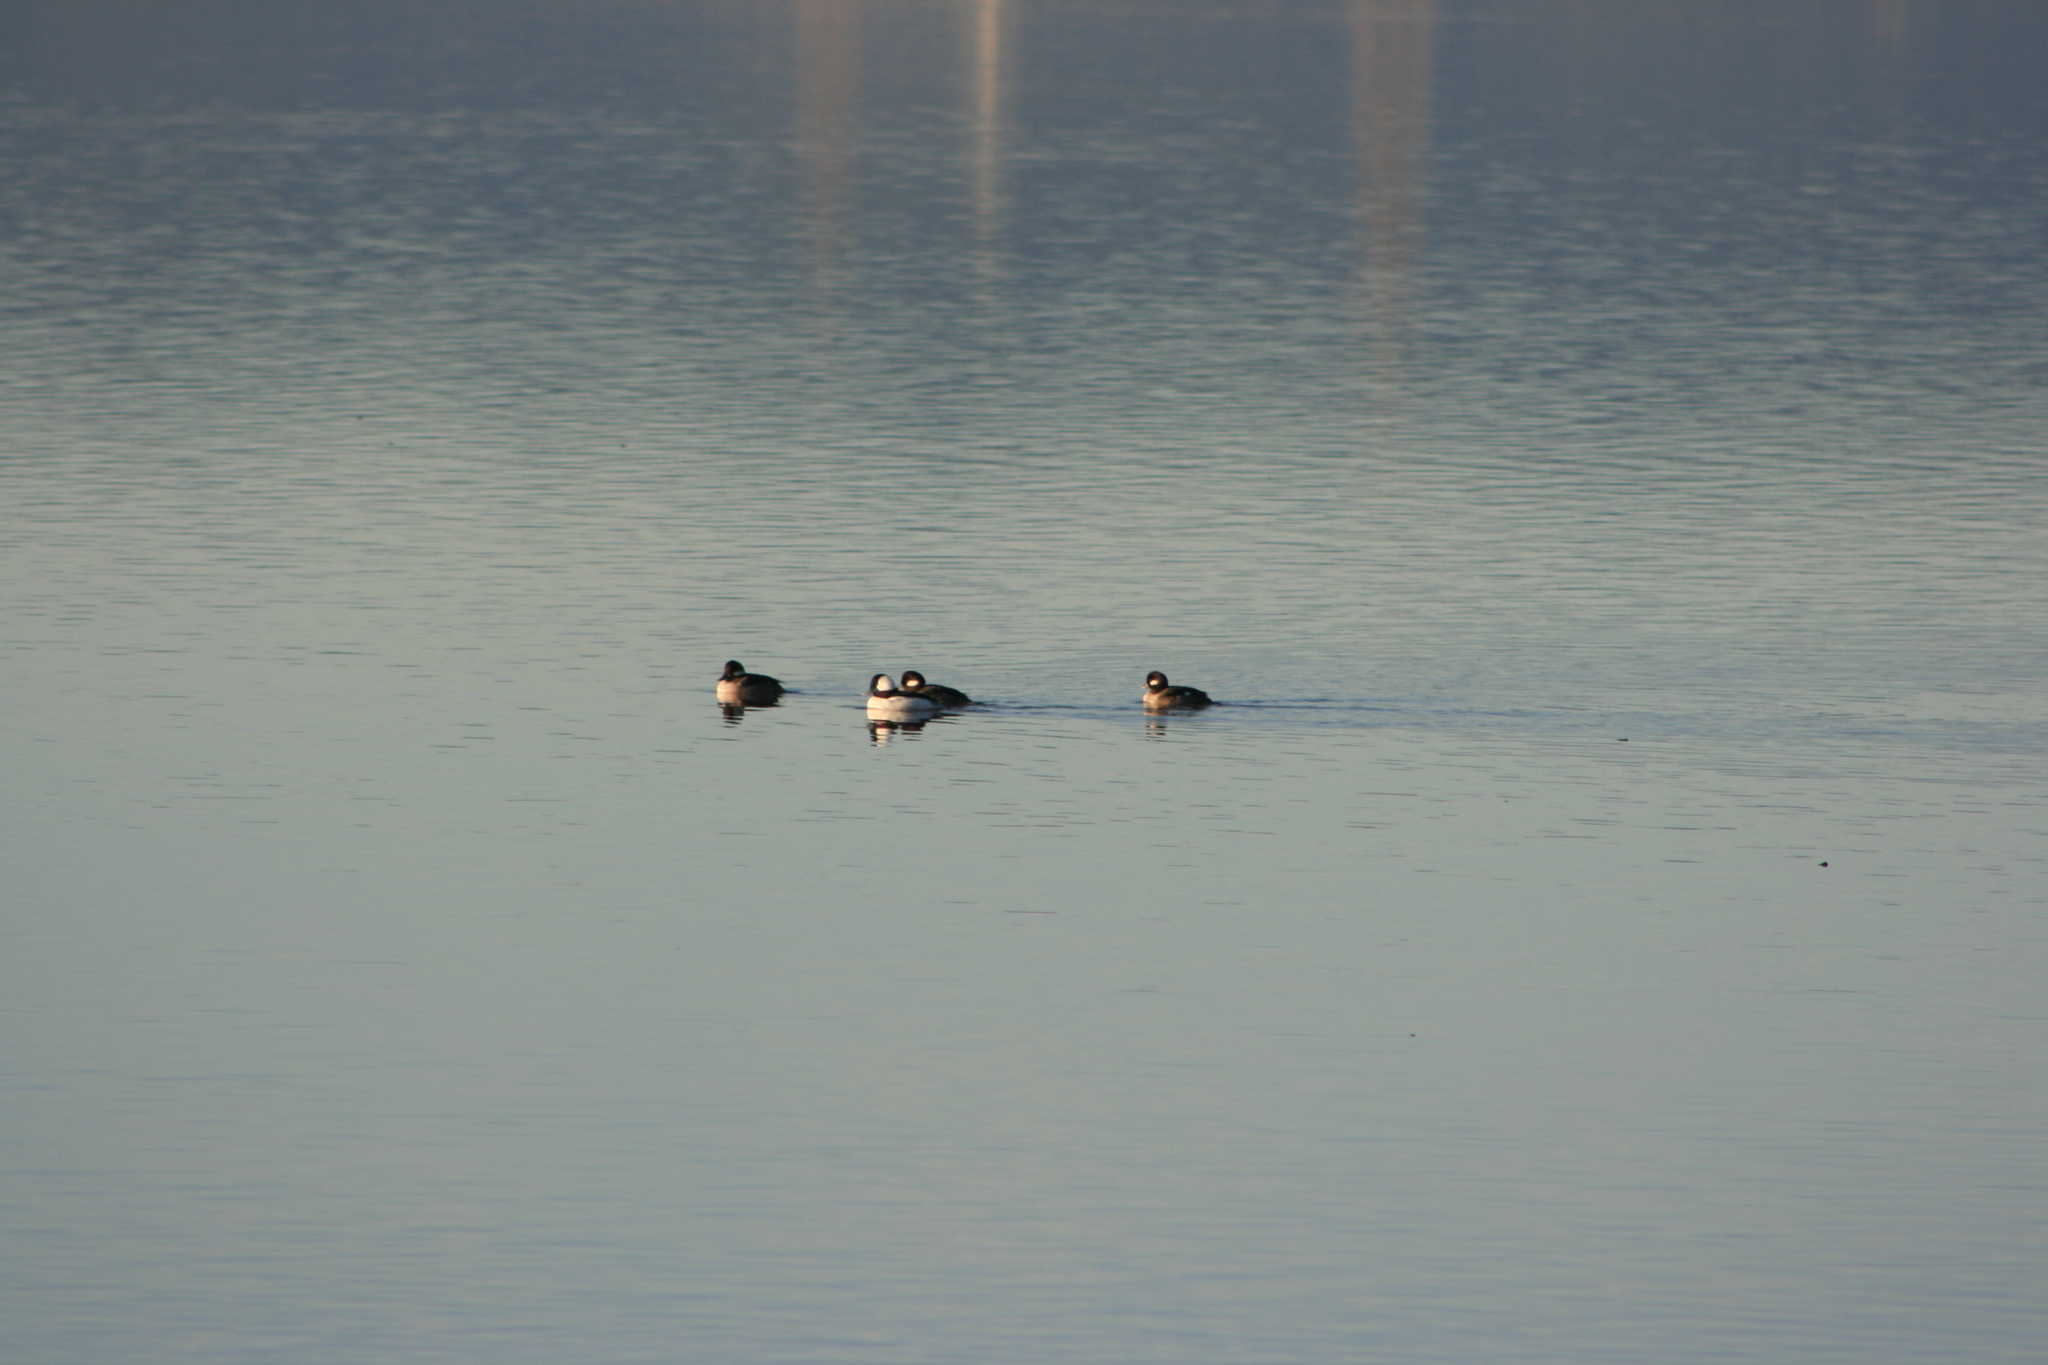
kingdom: Animalia
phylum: Chordata
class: Aves
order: Anseriformes
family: Anatidae
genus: Bucephala
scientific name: Bucephala albeola
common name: Bufflehead
